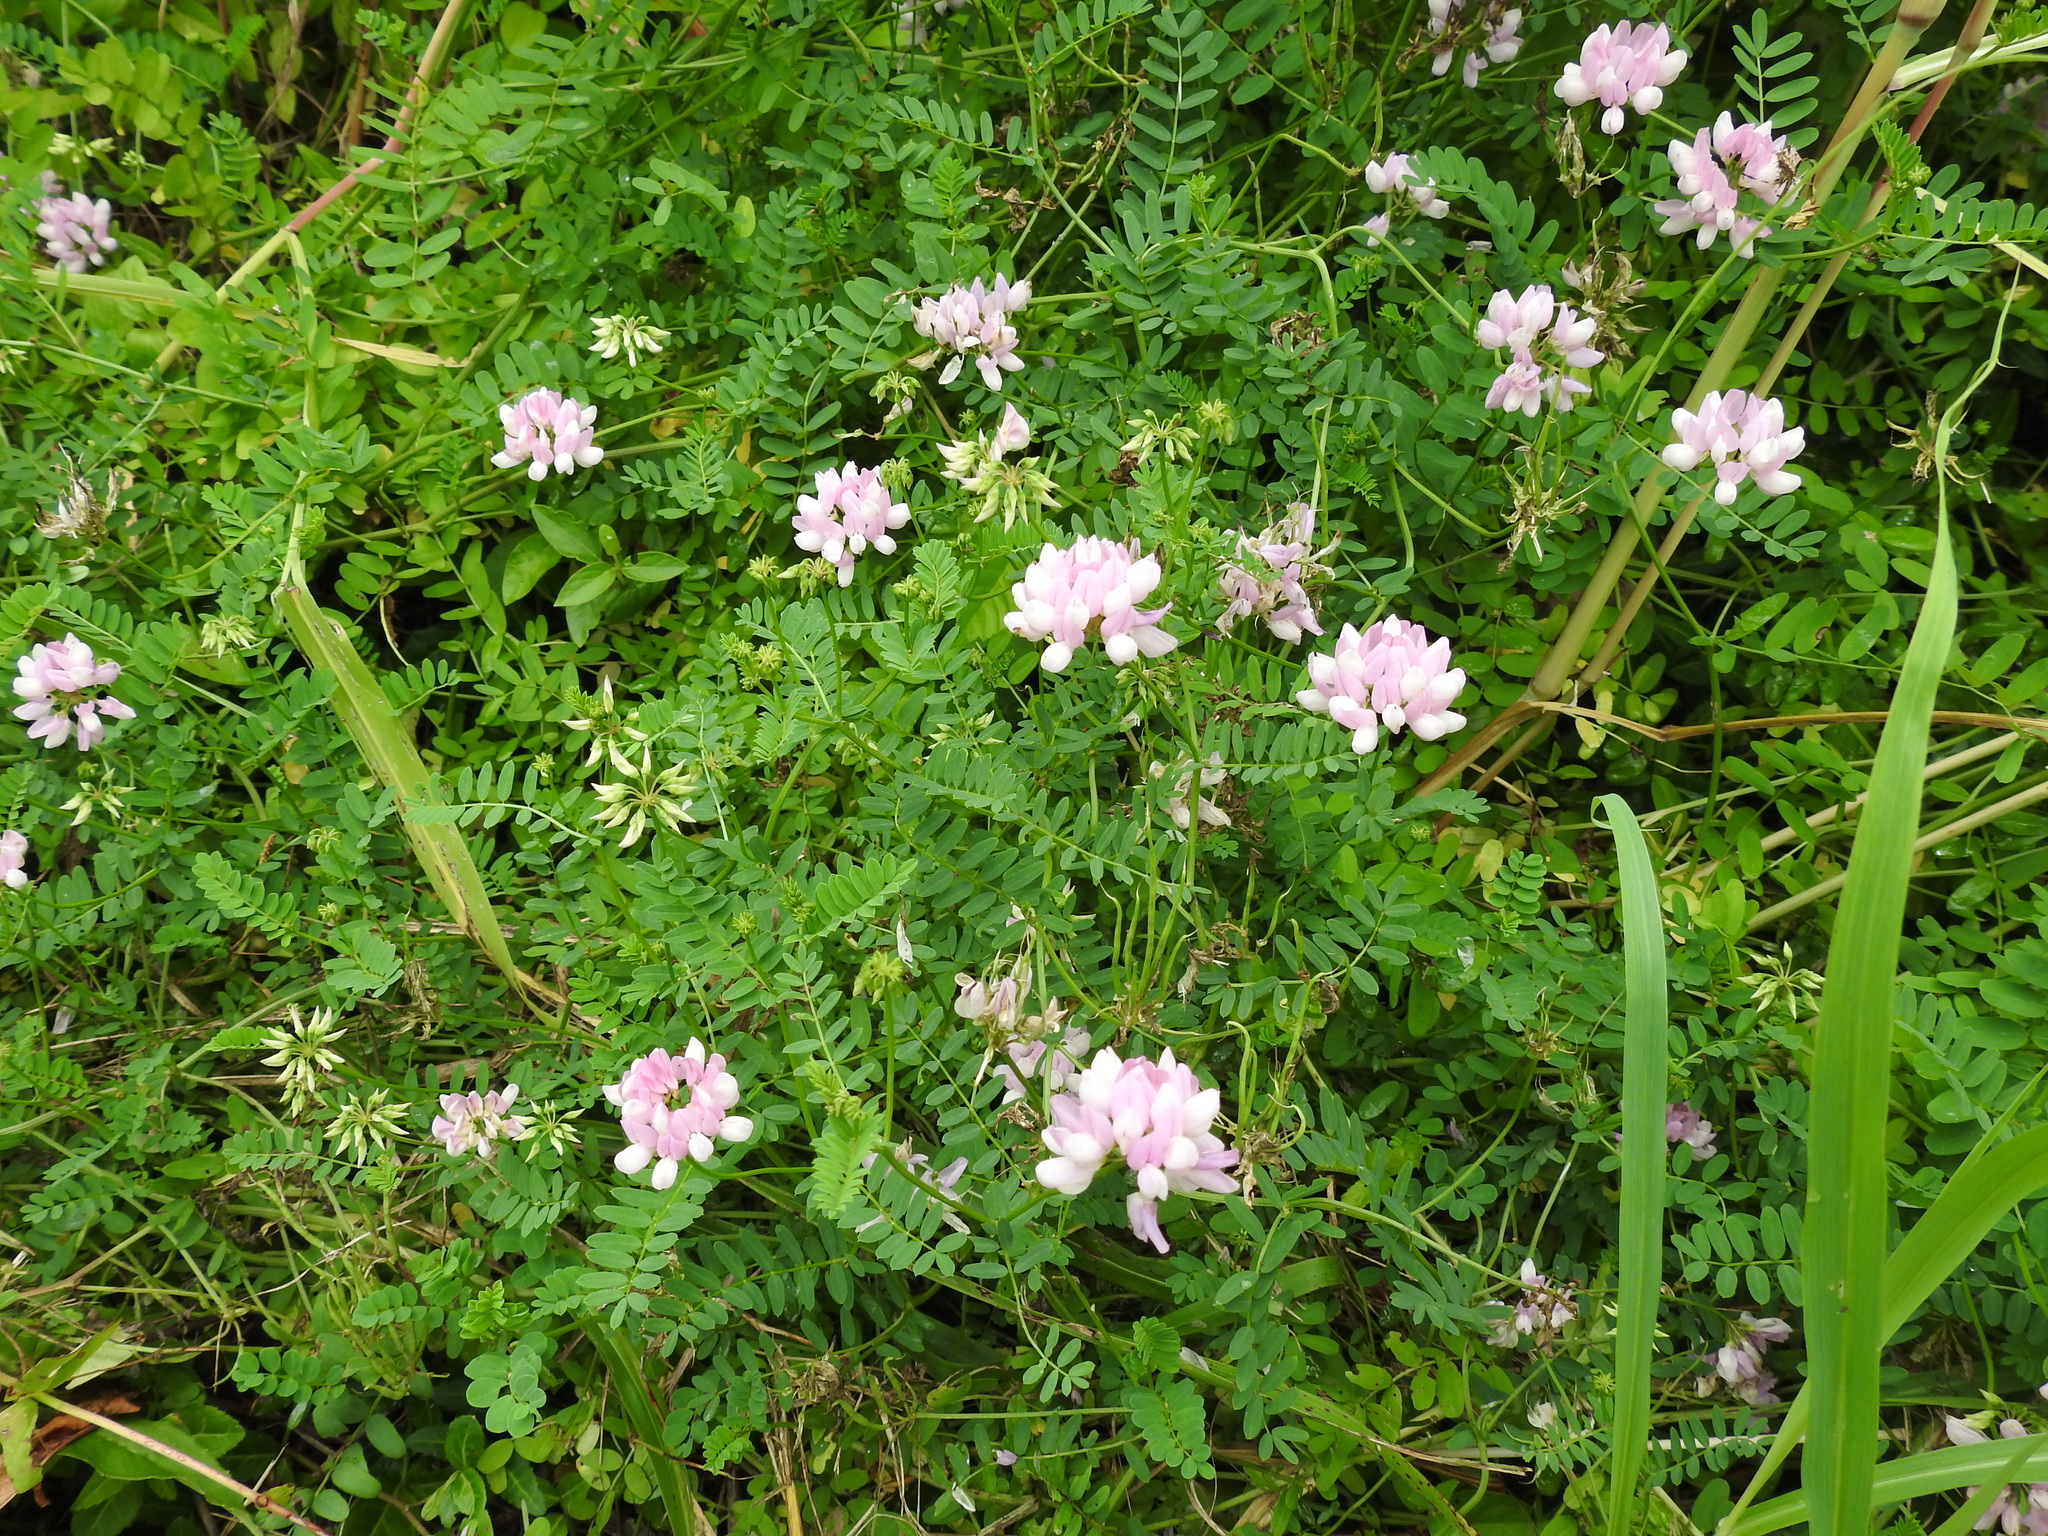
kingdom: Plantae
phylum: Tracheophyta
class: Magnoliopsida
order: Fabales
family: Fabaceae
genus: Coronilla
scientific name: Coronilla varia
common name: Crownvetch
